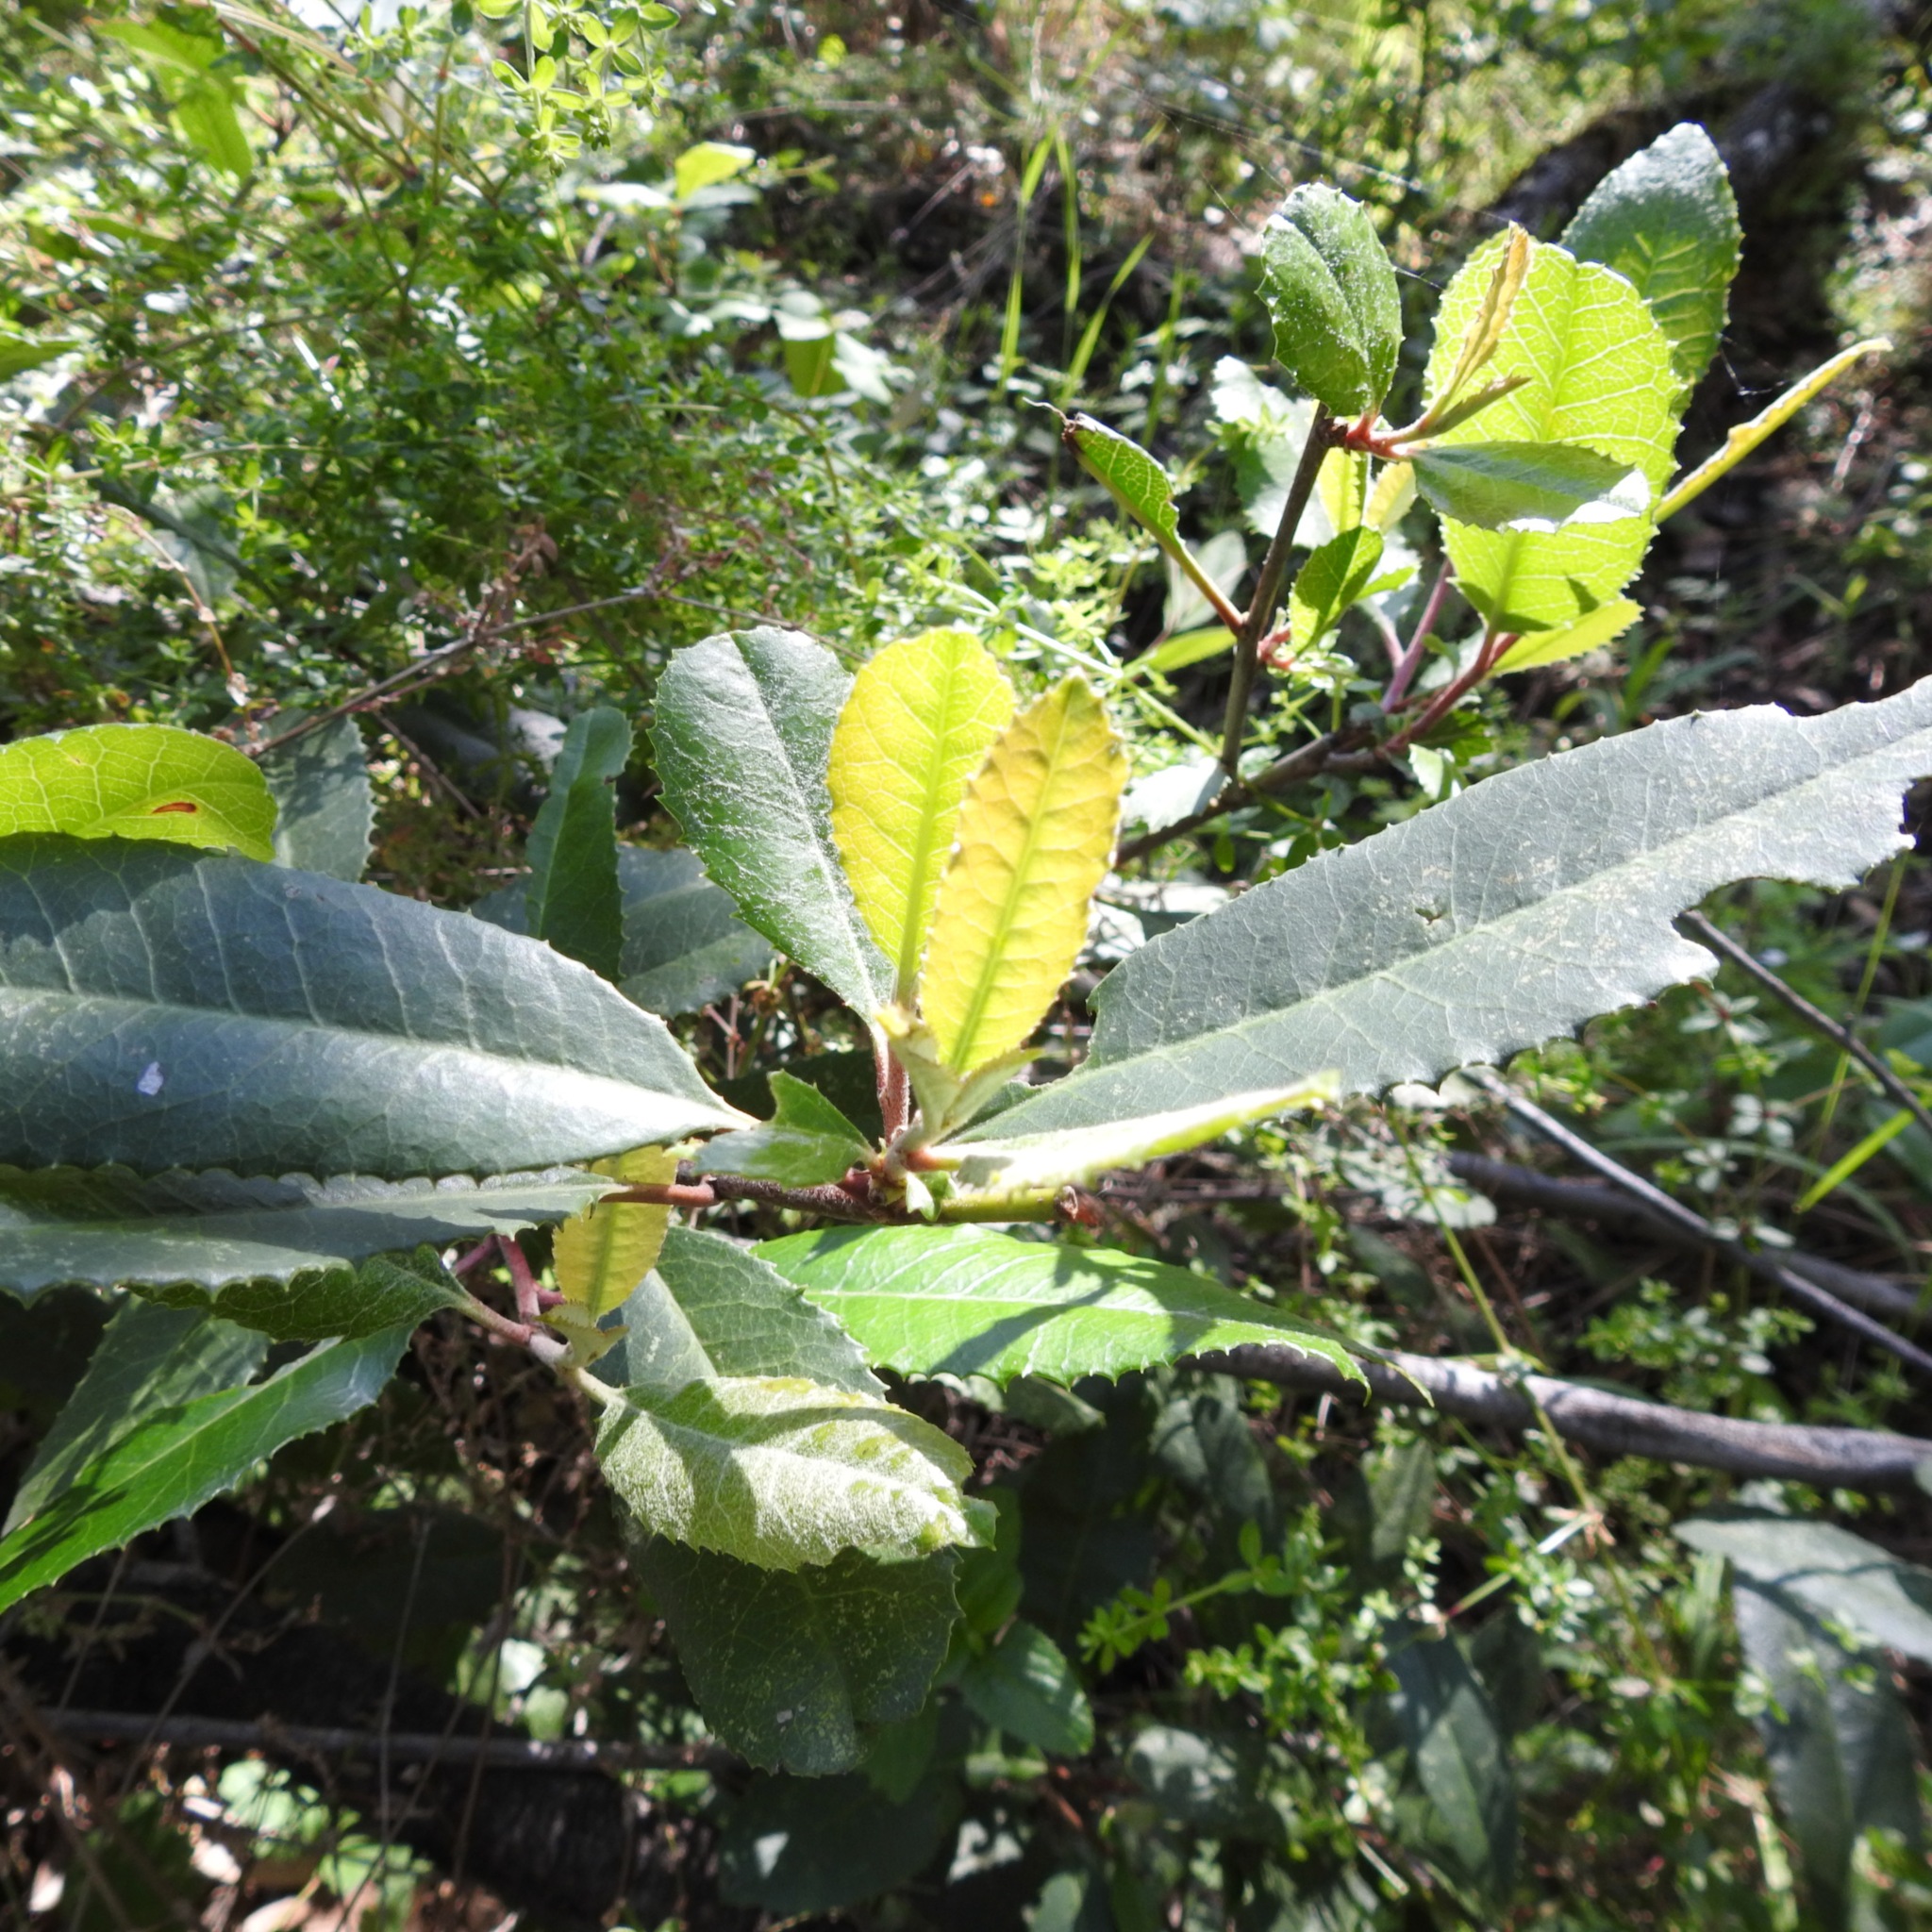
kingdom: Plantae
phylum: Tracheophyta
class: Magnoliopsida
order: Rosales
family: Rosaceae
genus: Heteromeles
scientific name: Heteromeles arbutifolia
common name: California-holly
